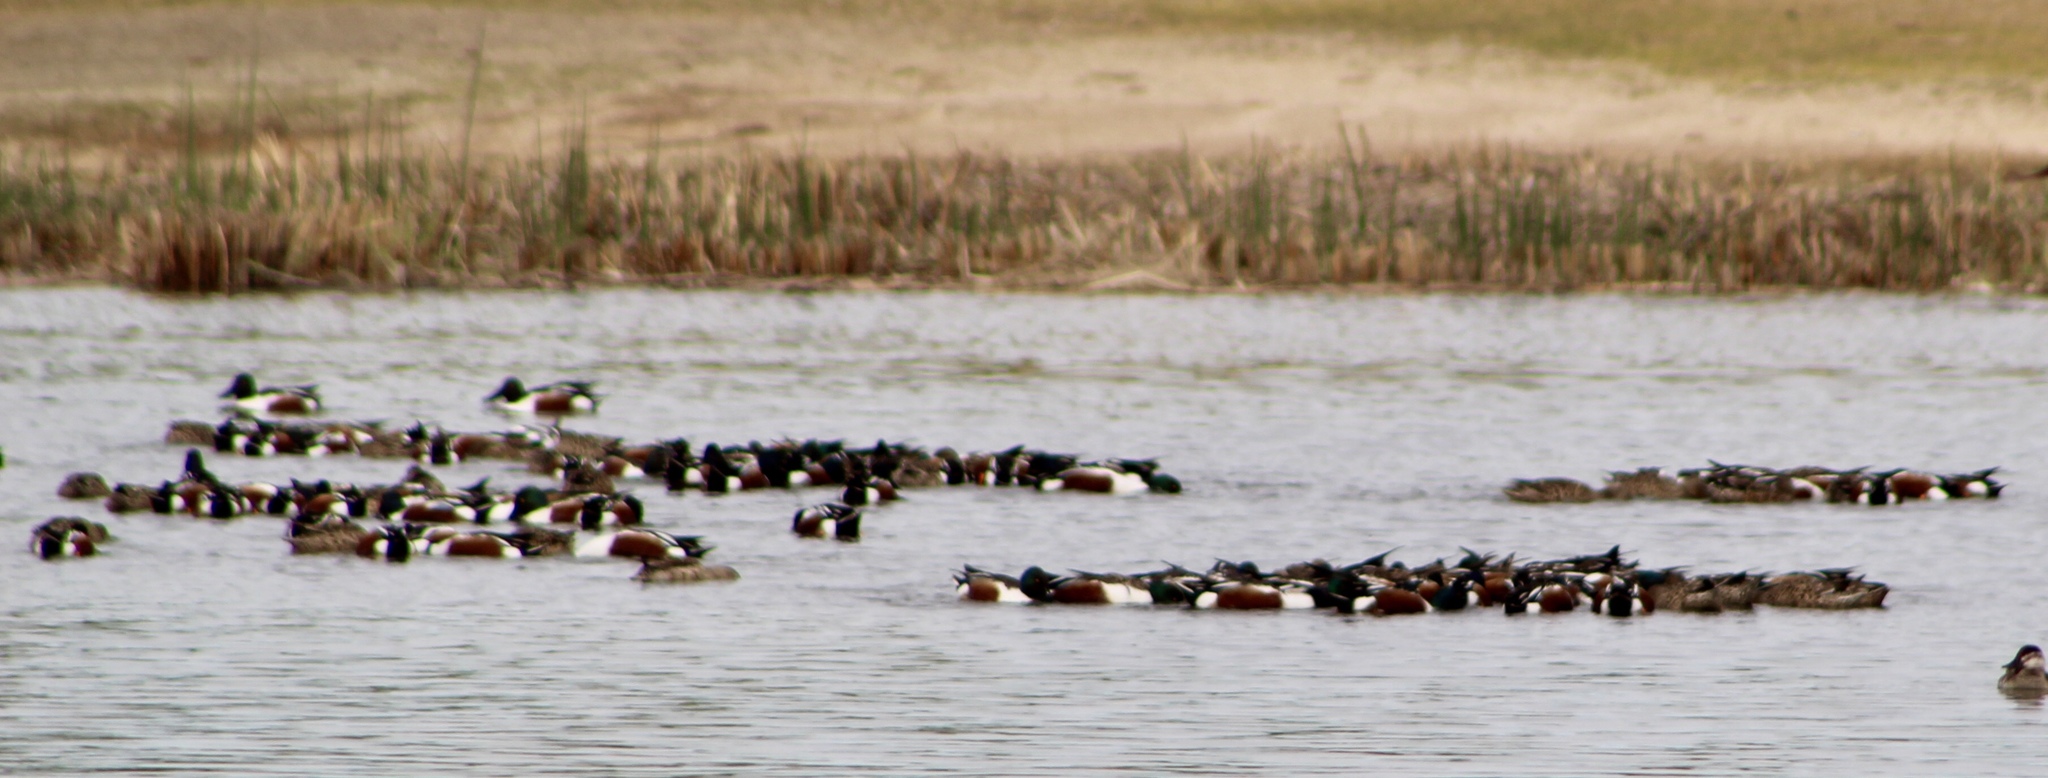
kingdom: Animalia
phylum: Chordata
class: Aves
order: Anseriformes
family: Anatidae
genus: Spatula
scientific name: Spatula clypeata
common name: Northern shoveler
